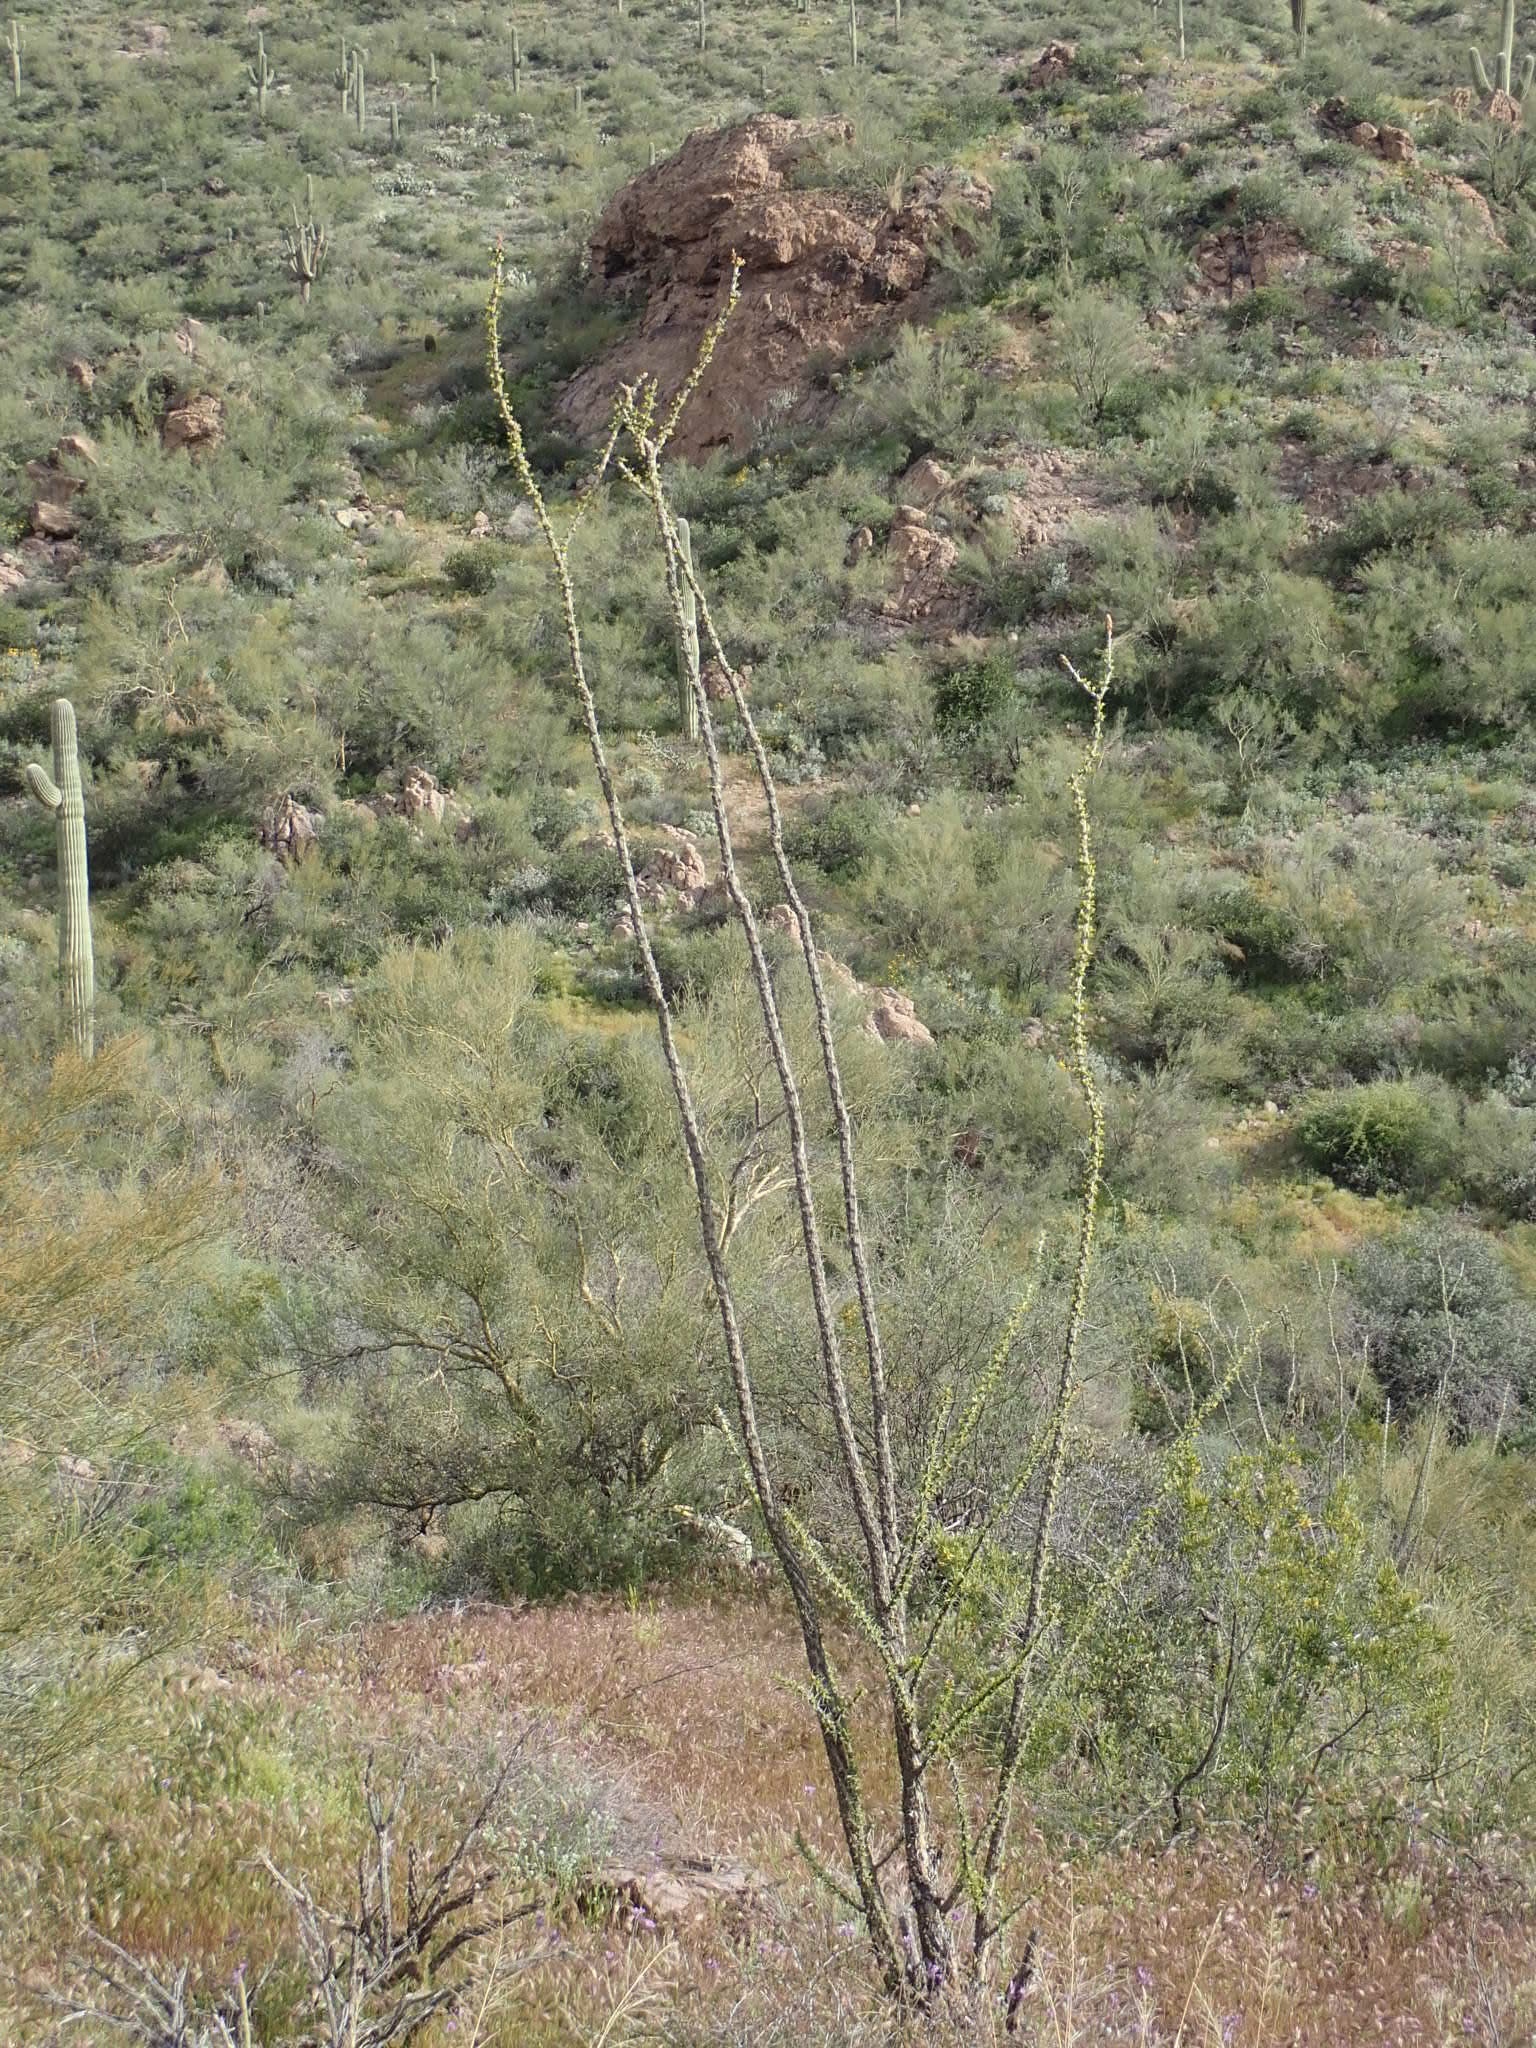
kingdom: Plantae
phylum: Tracheophyta
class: Magnoliopsida
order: Ericales
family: Fouquieriaceae
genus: Fouquieria
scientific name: Fouquieria splendens
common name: Vine-cactus
